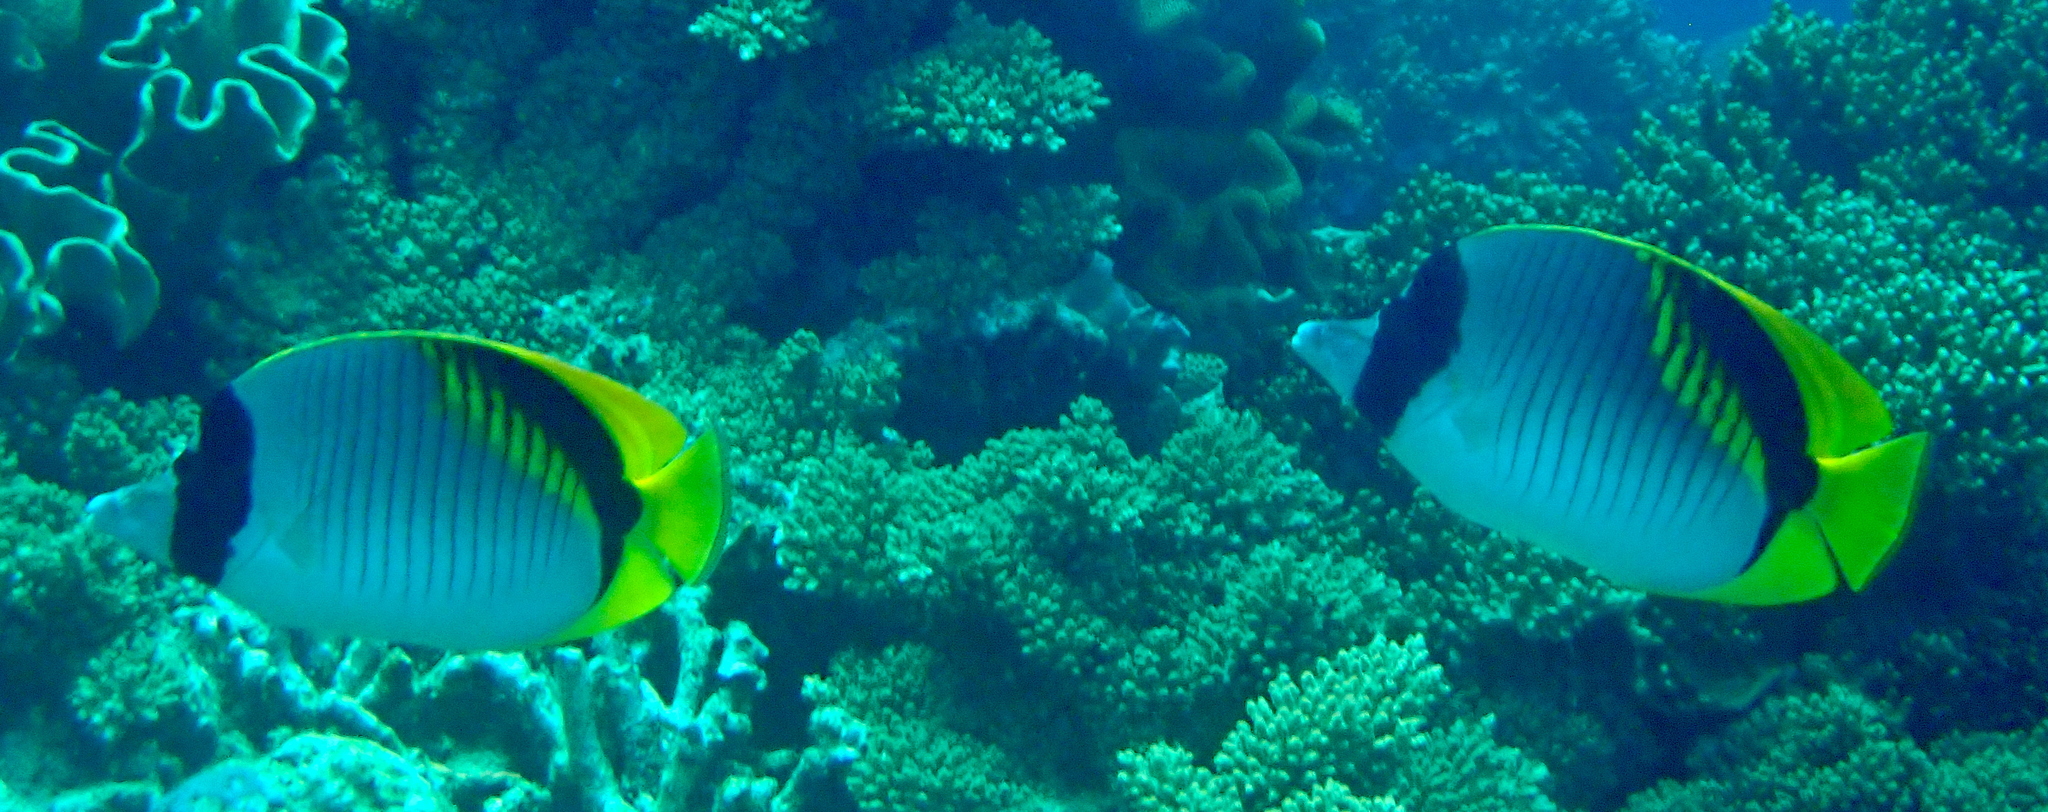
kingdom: Animalia
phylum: Chordata
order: Perciformes
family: Chaetodontidae
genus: Chaetodon
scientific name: Chaetodon lineolatus
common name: Lined butterflyfish
